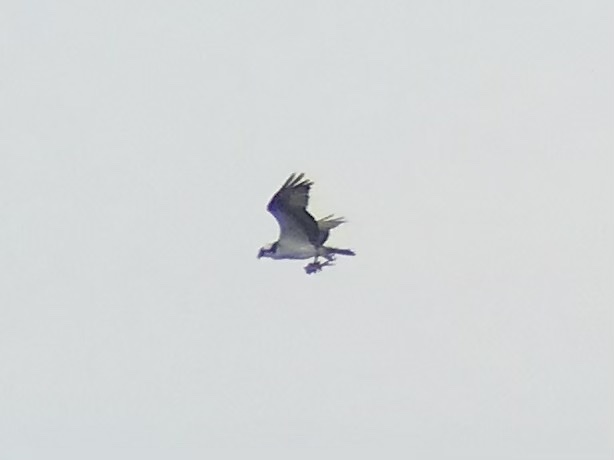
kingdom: Animalia
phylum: Chordata
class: Aves
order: Accipitriformes
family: Pandionidae
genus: Pandion
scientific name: Pandion haliaetus
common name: Osprey
